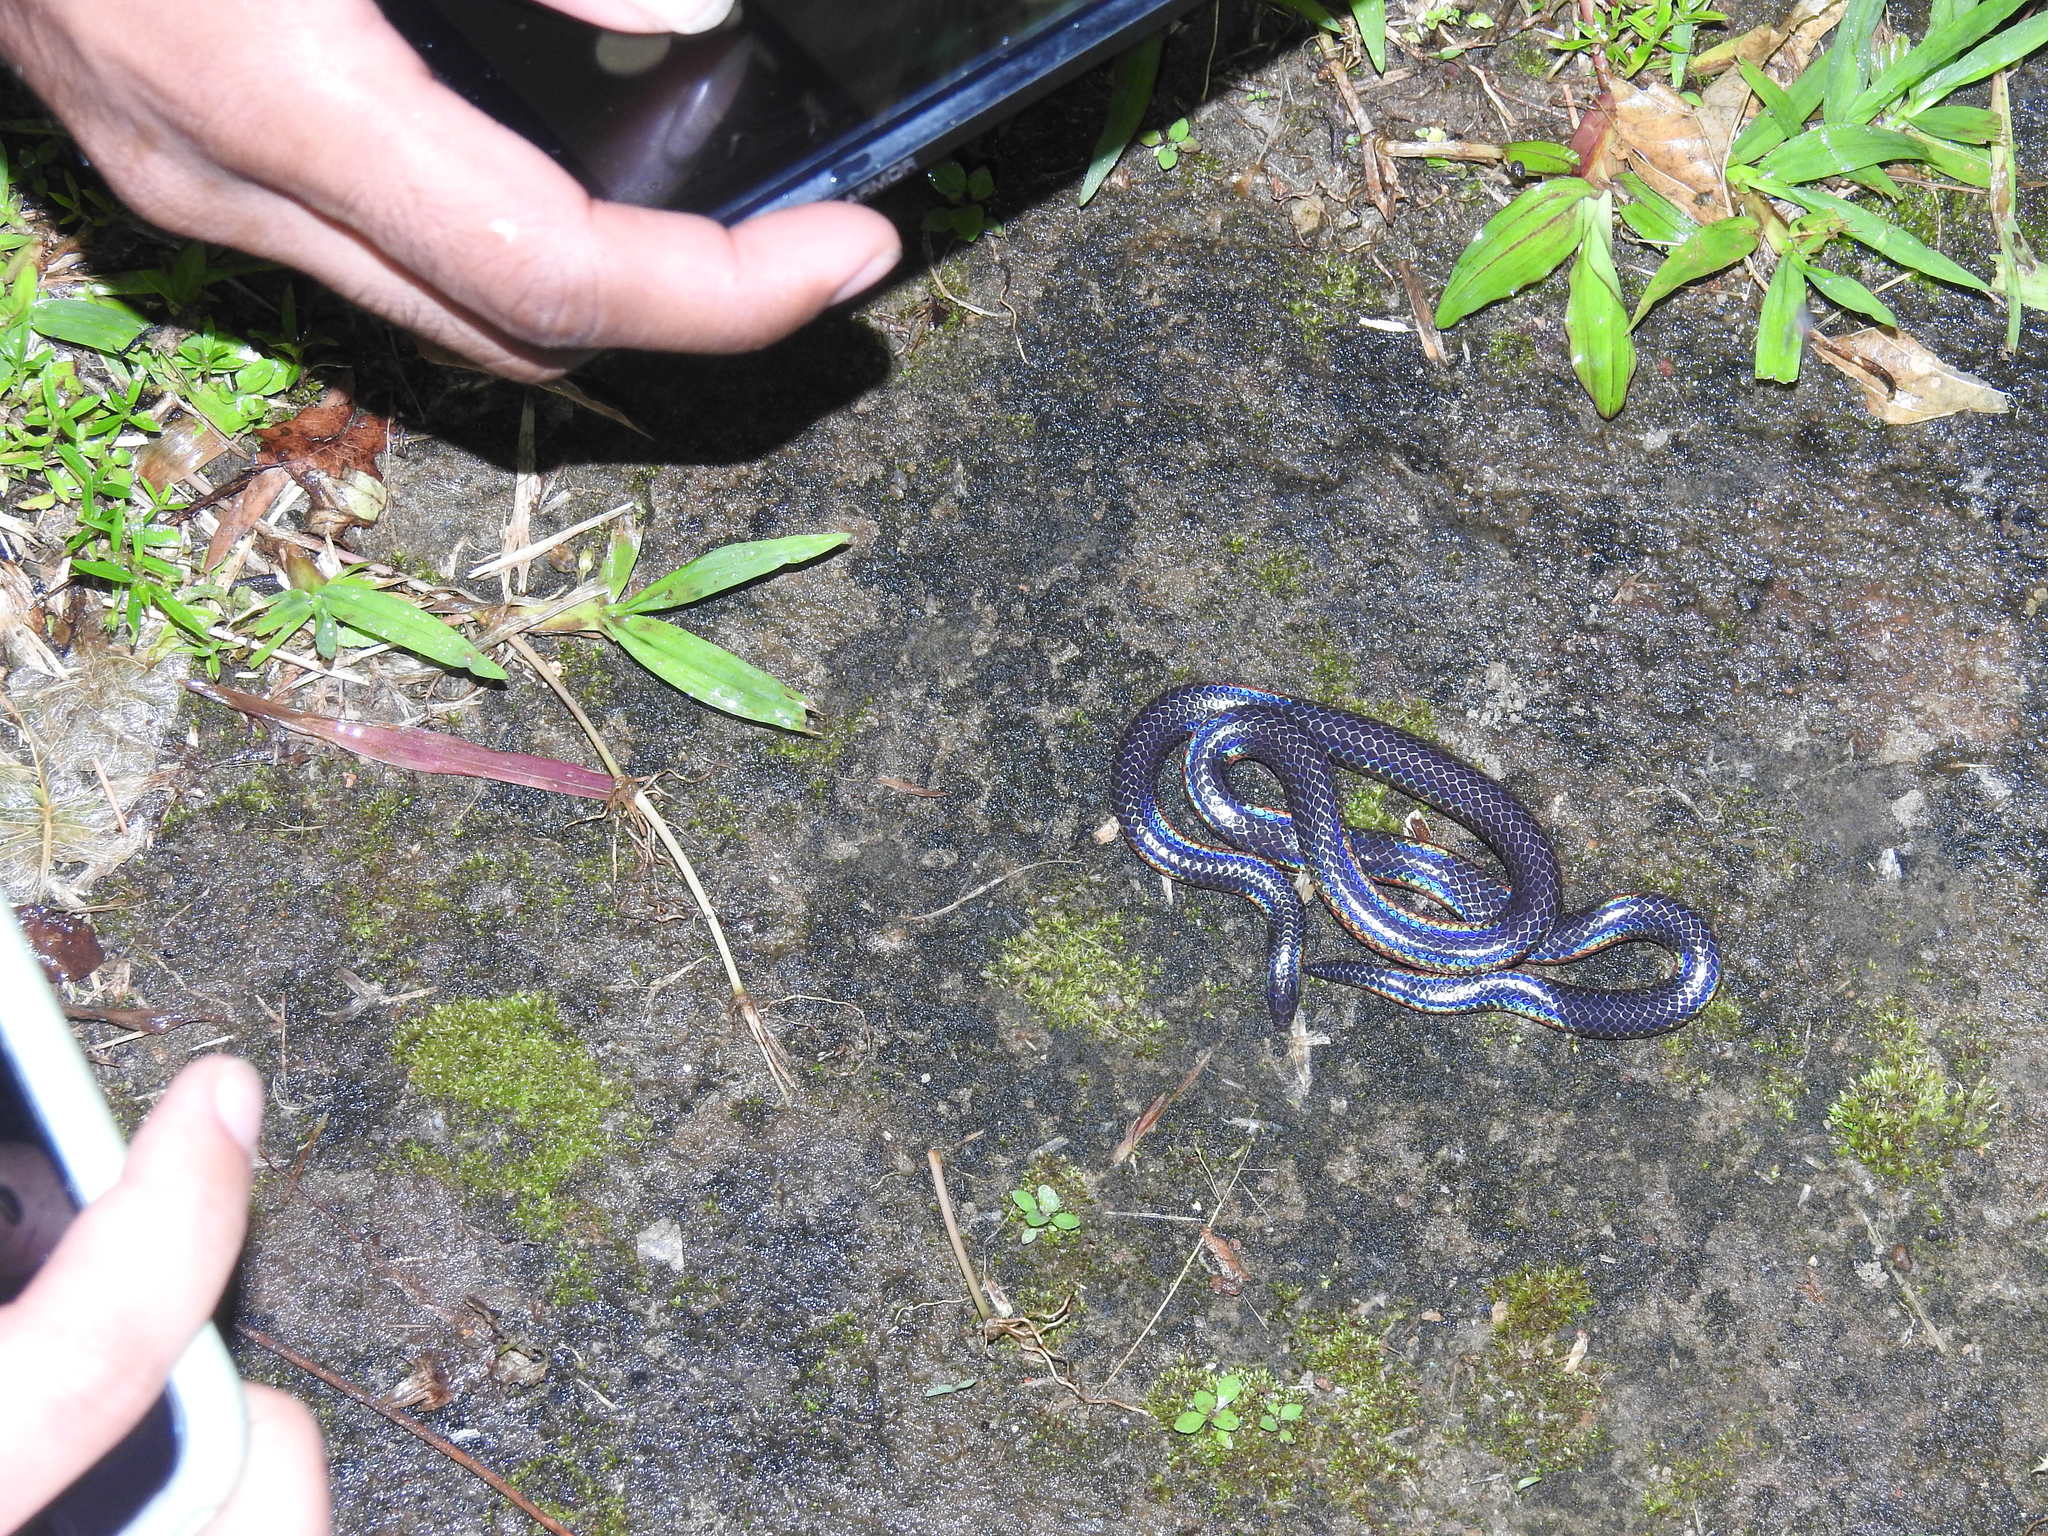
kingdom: Animalia
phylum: Chordata
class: Squamata
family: Uropeltidae
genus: Melanophidium
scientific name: Melanophidium wynaudense
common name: Indian black earth snake
